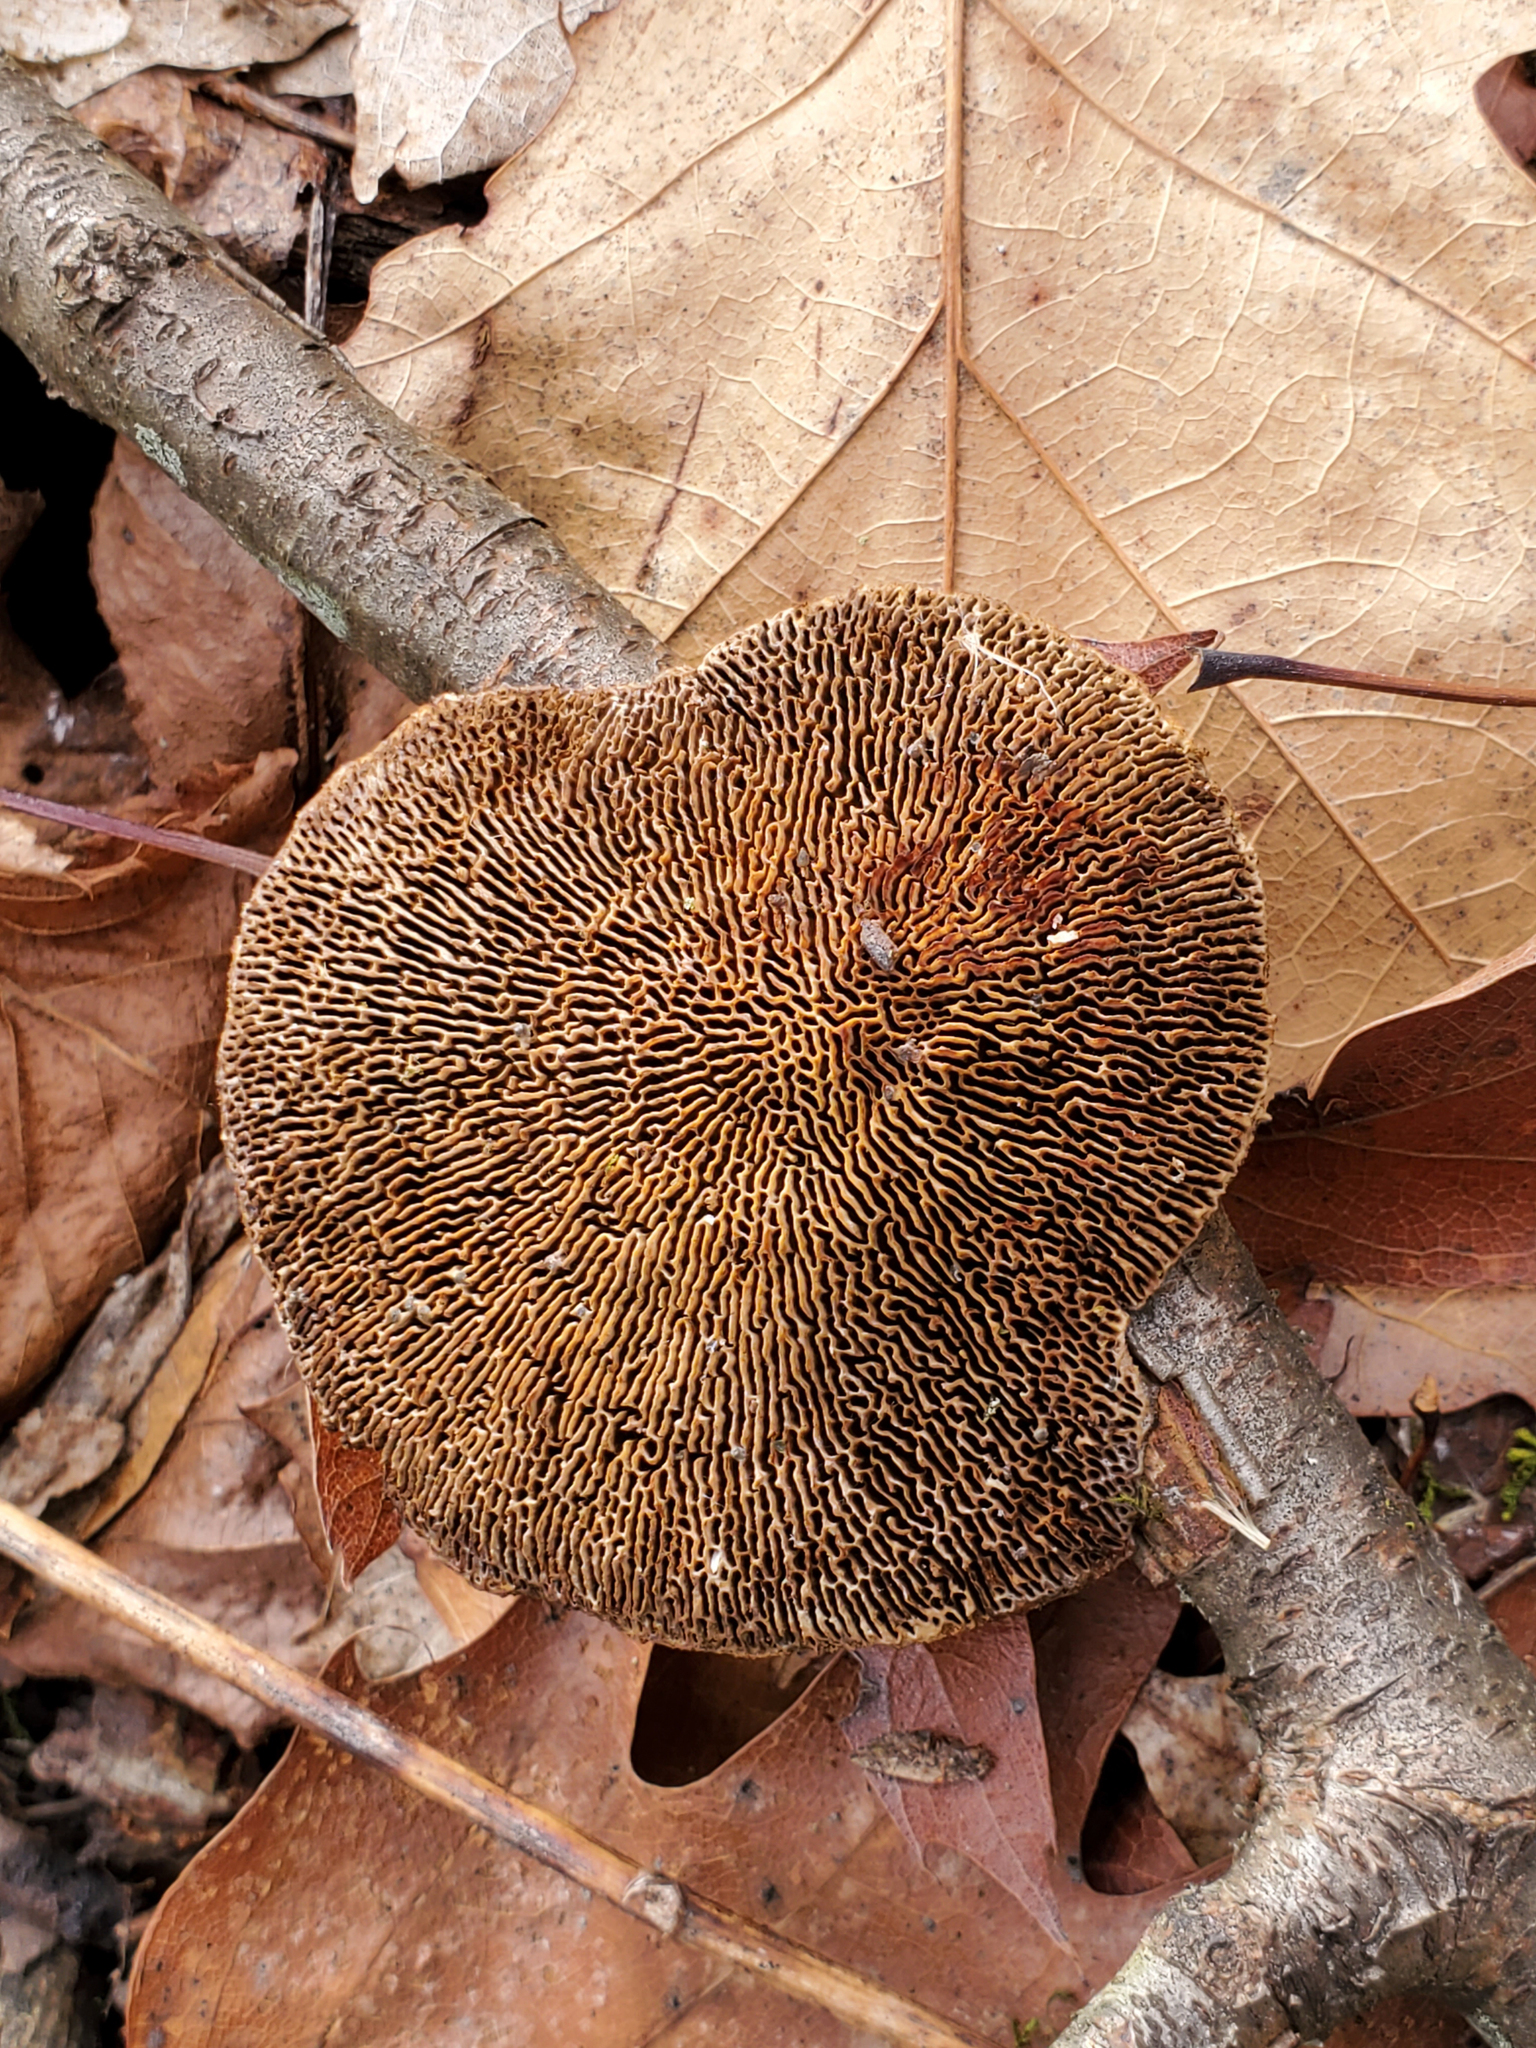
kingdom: Fungi
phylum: Basidiomycota
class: Agaricomycetes
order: Polyporales
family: Polyporaceae
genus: Daedaleopsis
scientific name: Daedaleopsis confragosa
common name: Blushing bracket
